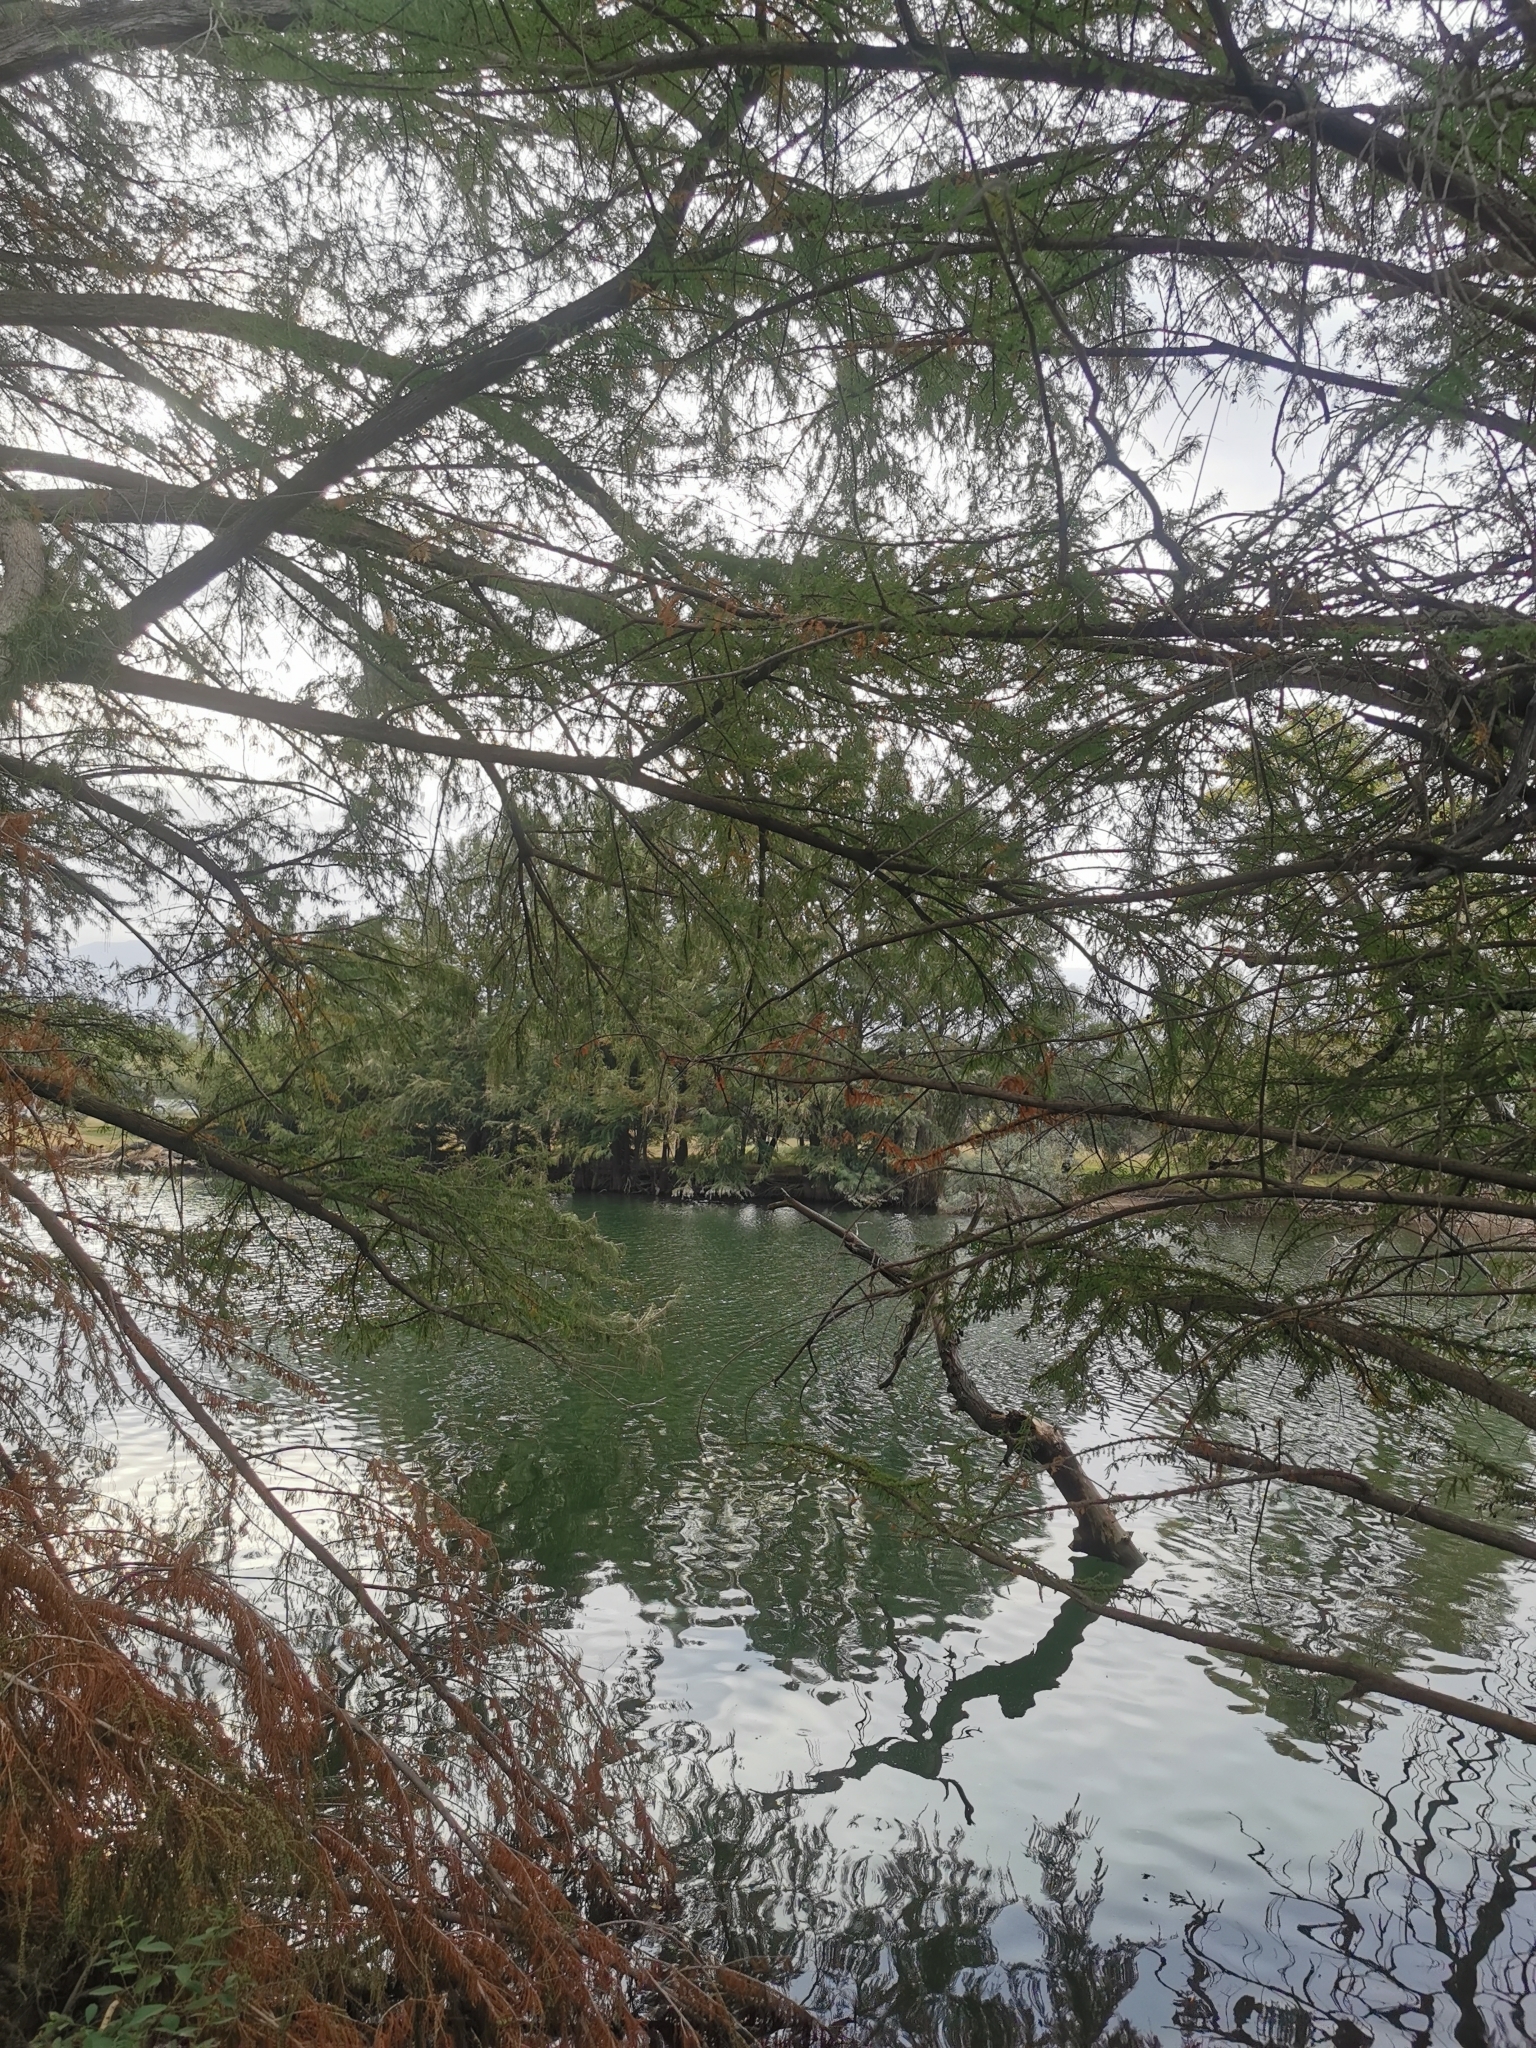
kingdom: Plantae
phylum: Tracheophyta
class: Pinopsida
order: Pinales
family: Cupressaceae
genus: Taxodium
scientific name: Taxodium mucronatum
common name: Montezume bald cypress
